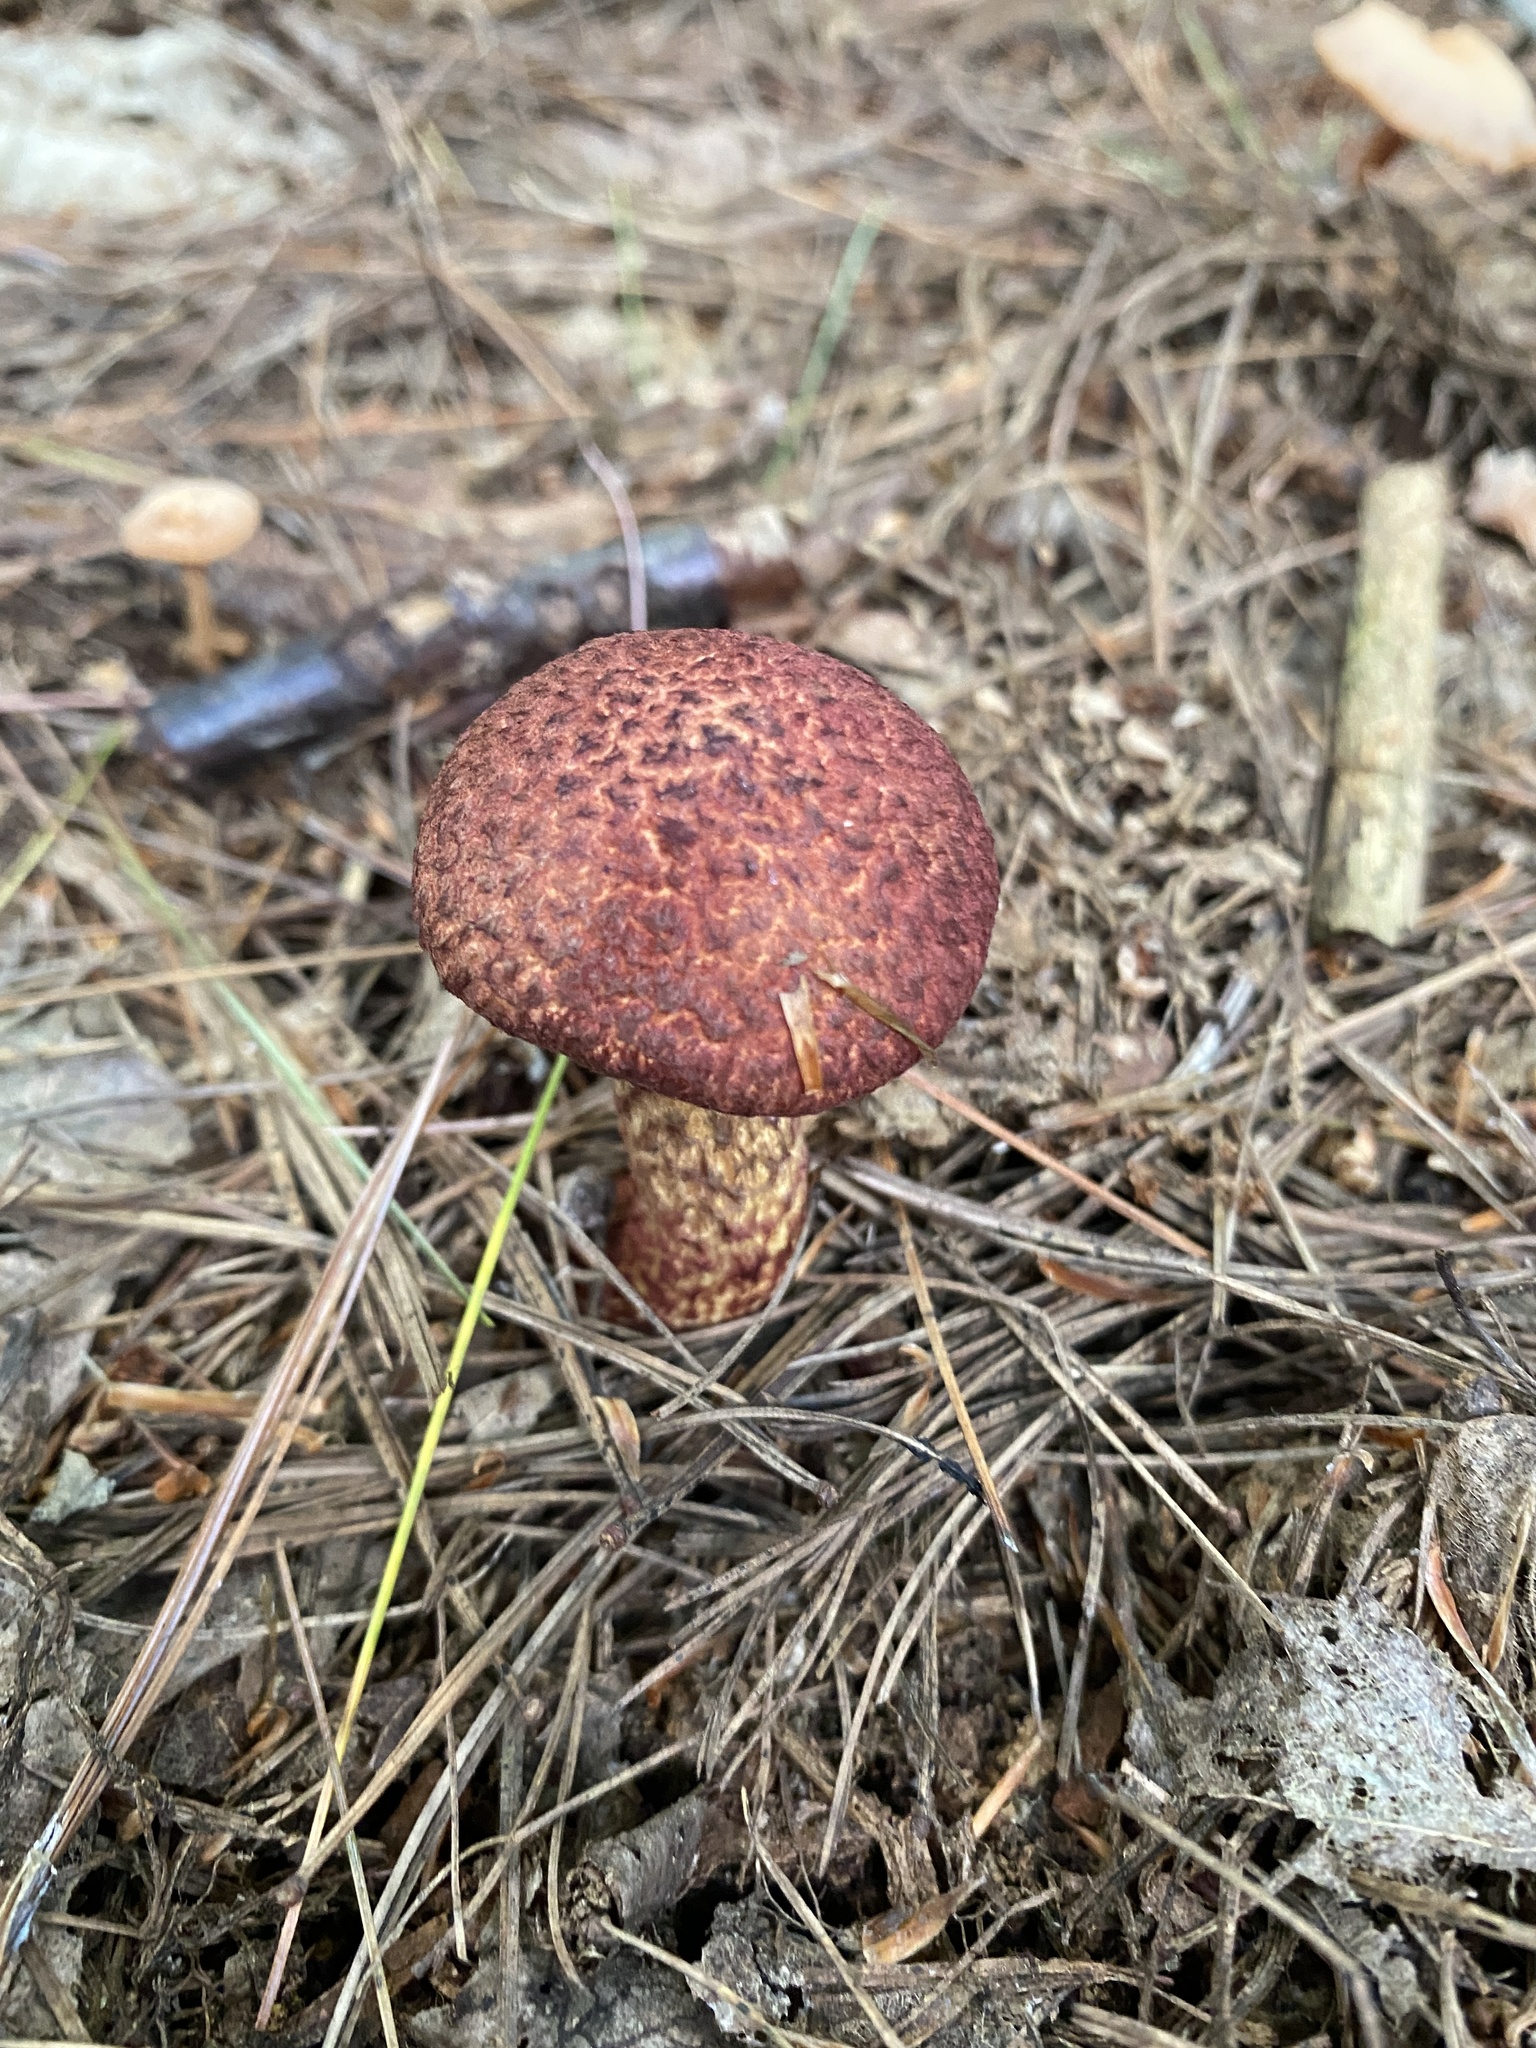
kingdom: Fungi
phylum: Basidiomycota
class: Agaricomycetes
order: Boletales
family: Suillaceae
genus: Suillus
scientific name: Suillus spraguei
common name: Painted suillus
